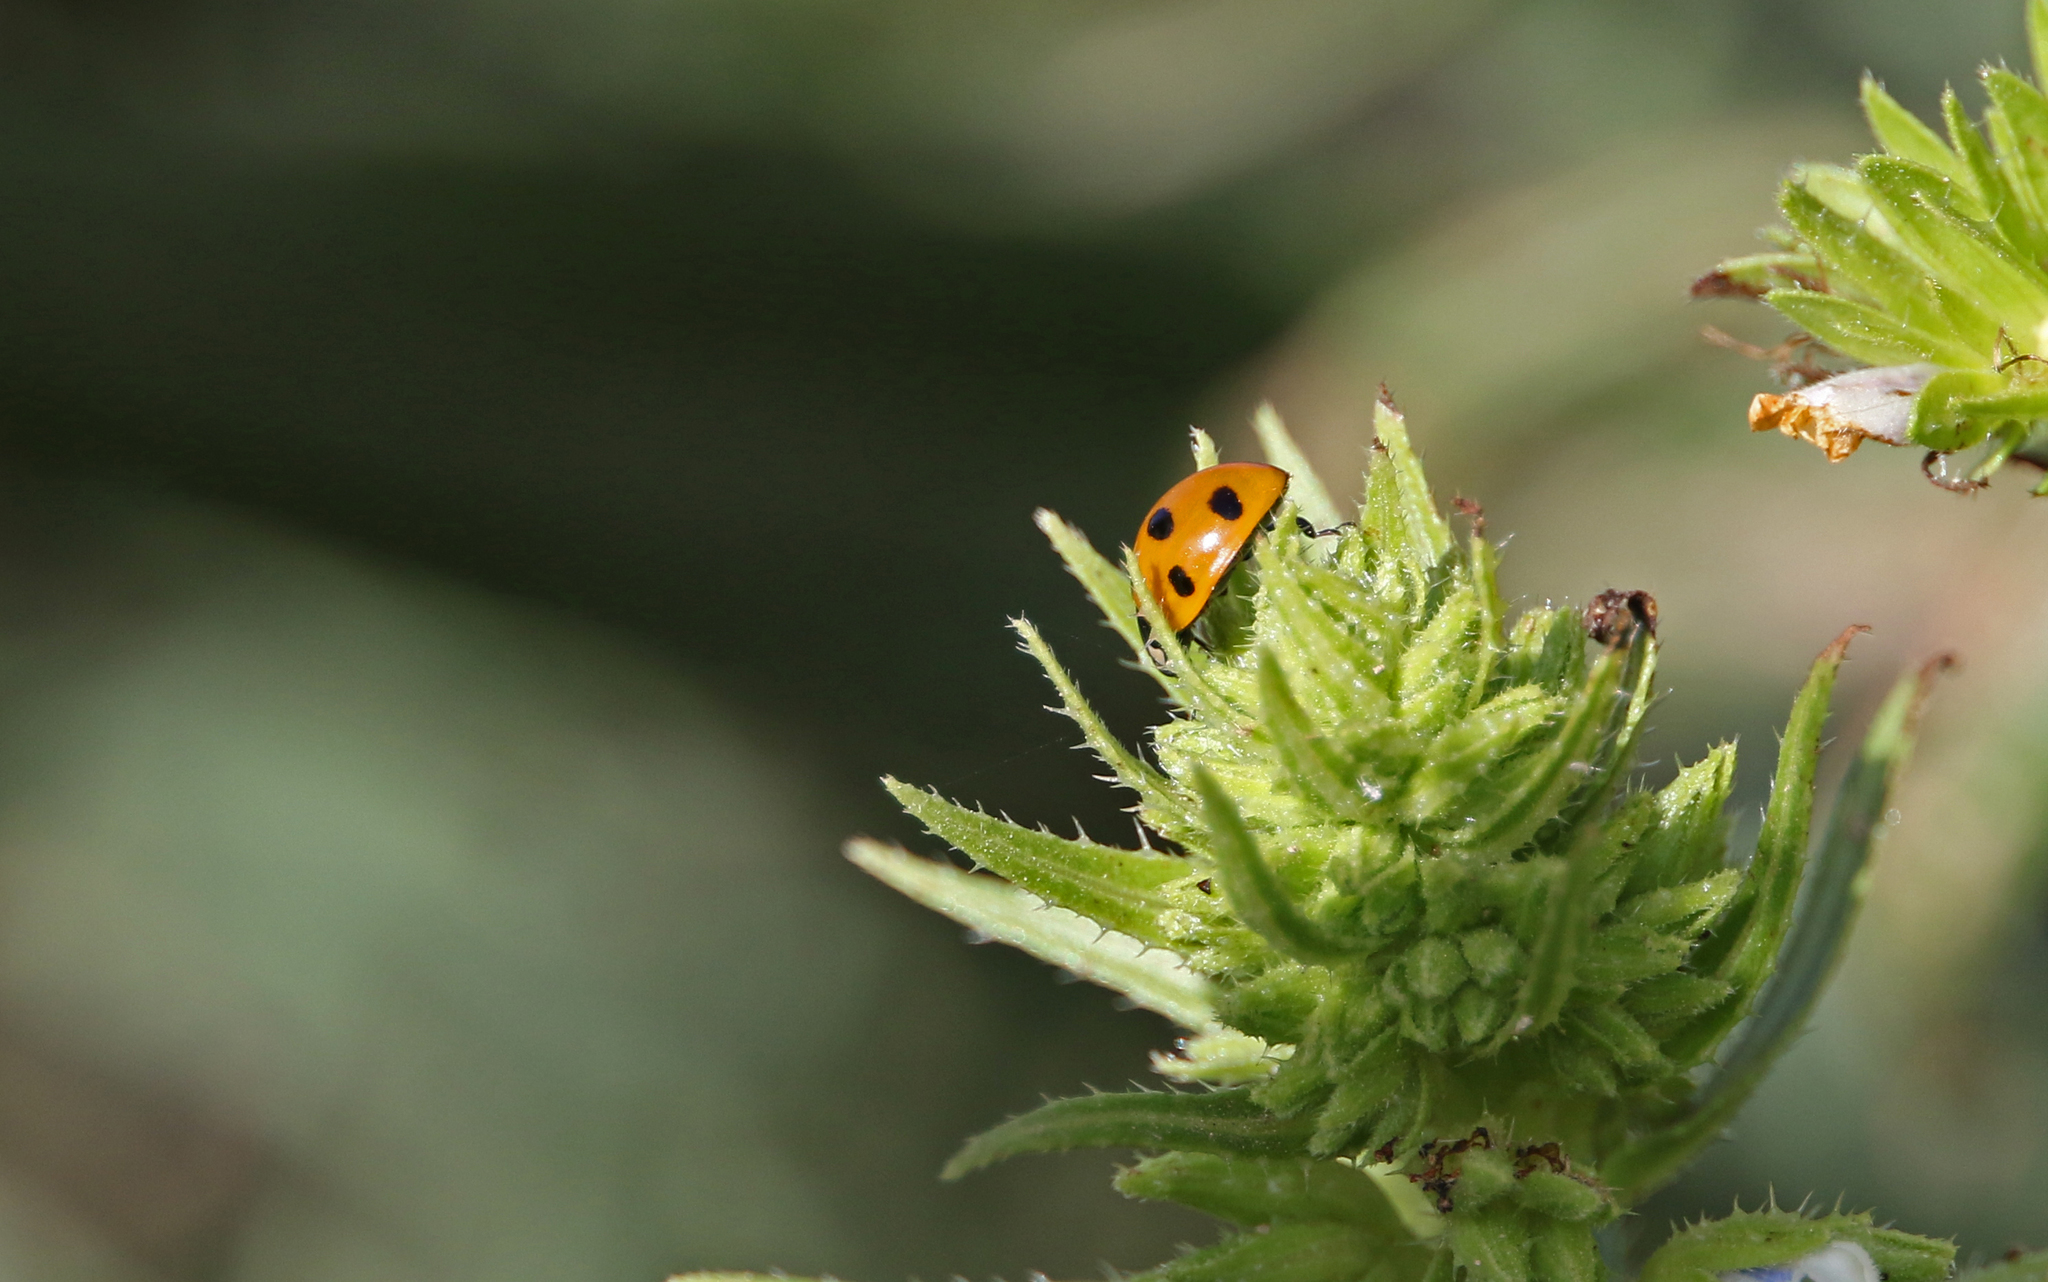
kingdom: Animalia
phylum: Arthropoda
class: Insecta
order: Coleoptera
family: Coccinellidae
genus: Coccinella
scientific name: Coccinella algerica
